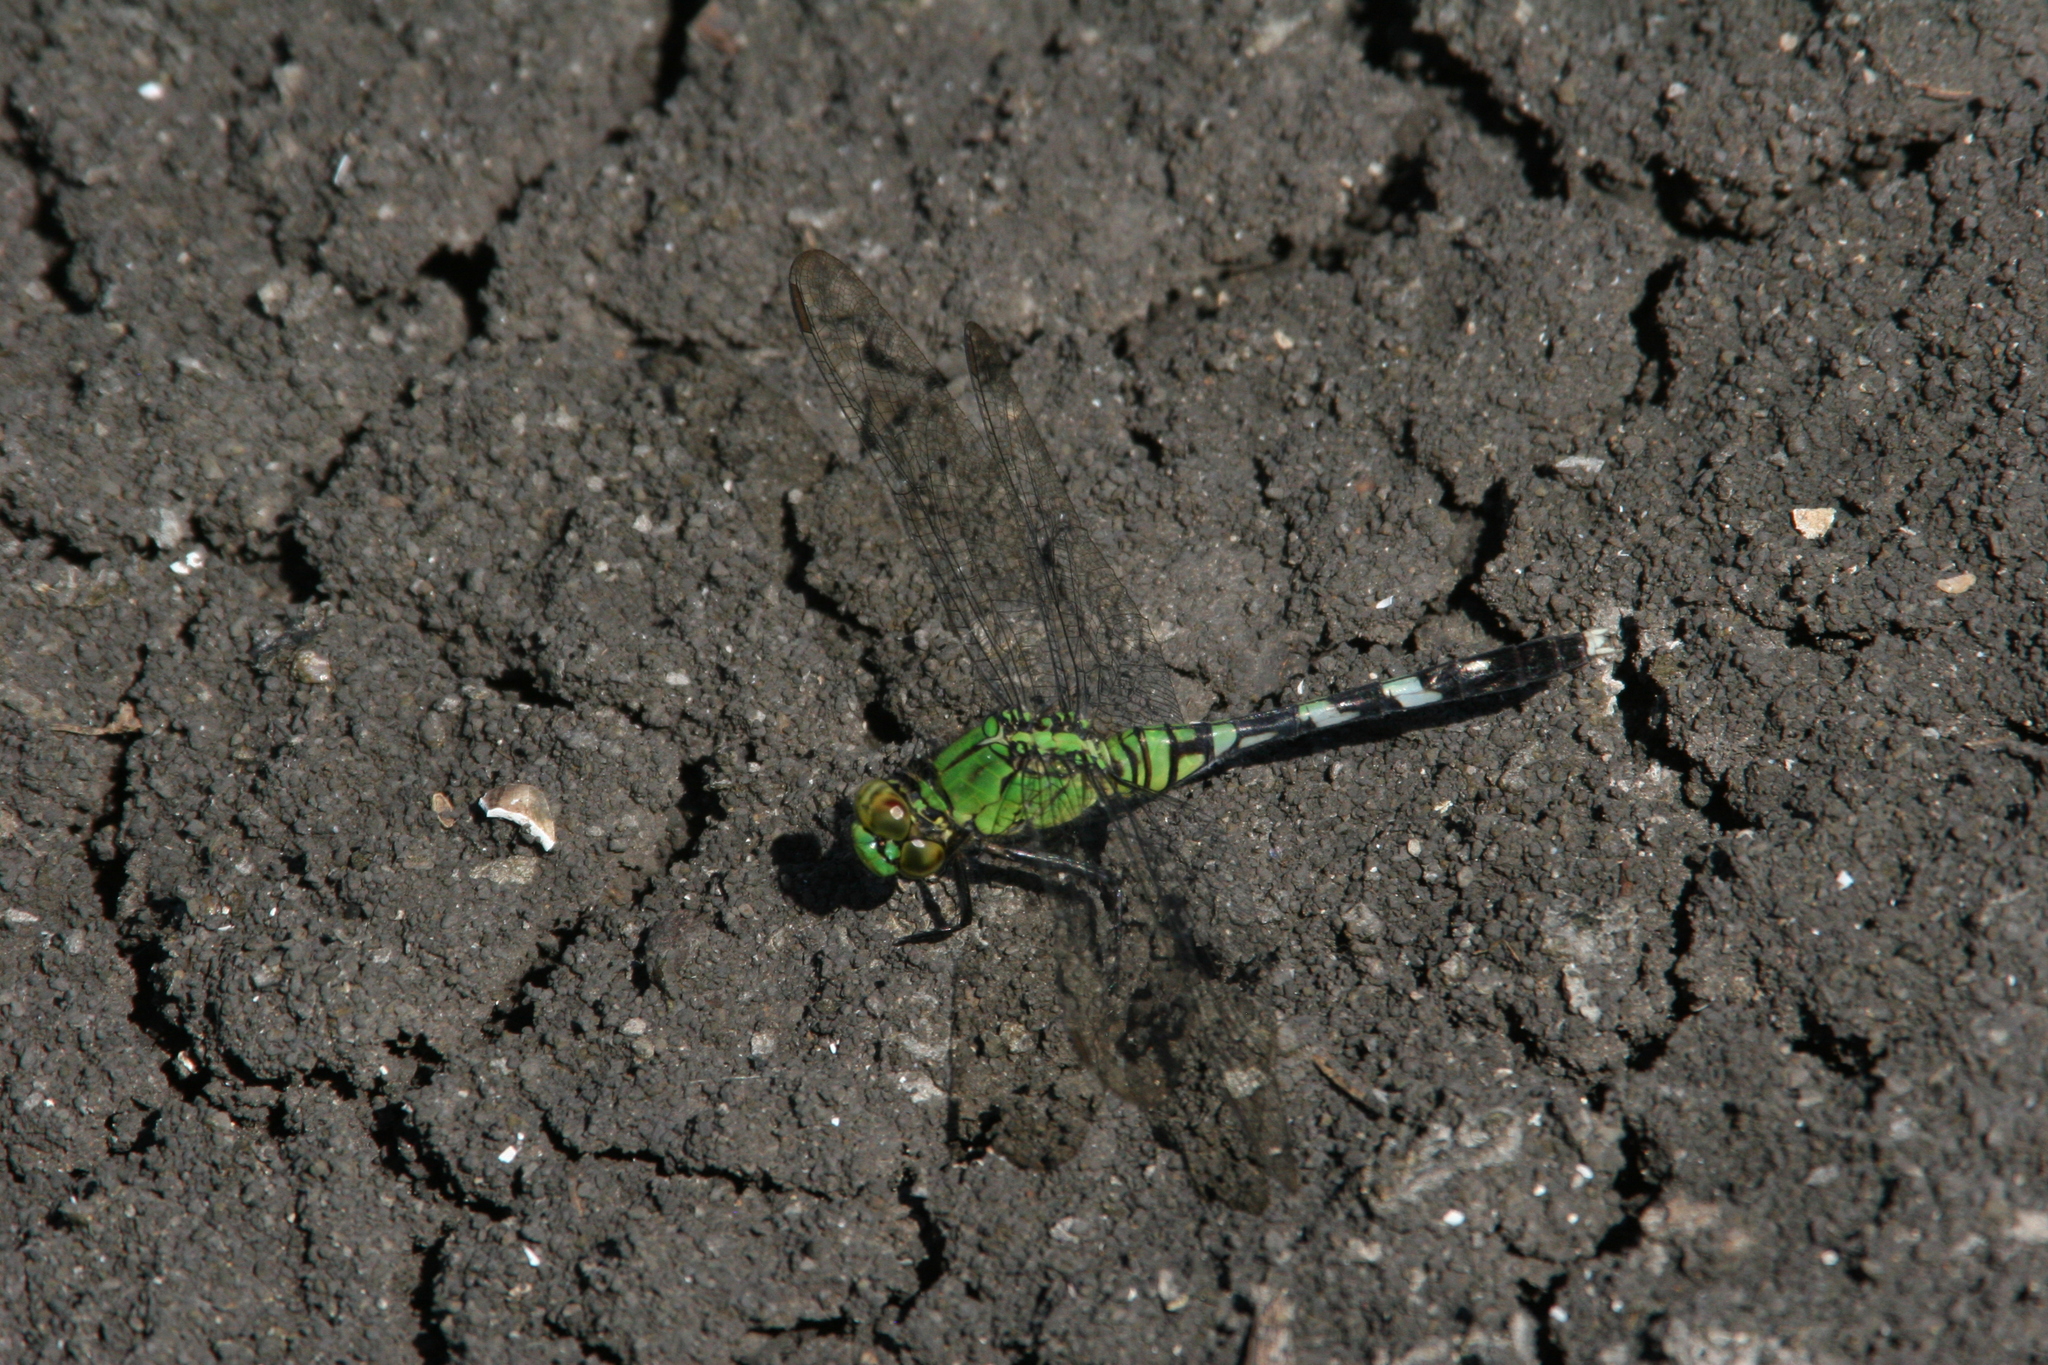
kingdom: Animalia
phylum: Arthropoda
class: Insecta
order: Odonata
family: Libellulidae
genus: Erythemis
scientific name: Erythemis simplicicollis
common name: Eastern pondhawk
